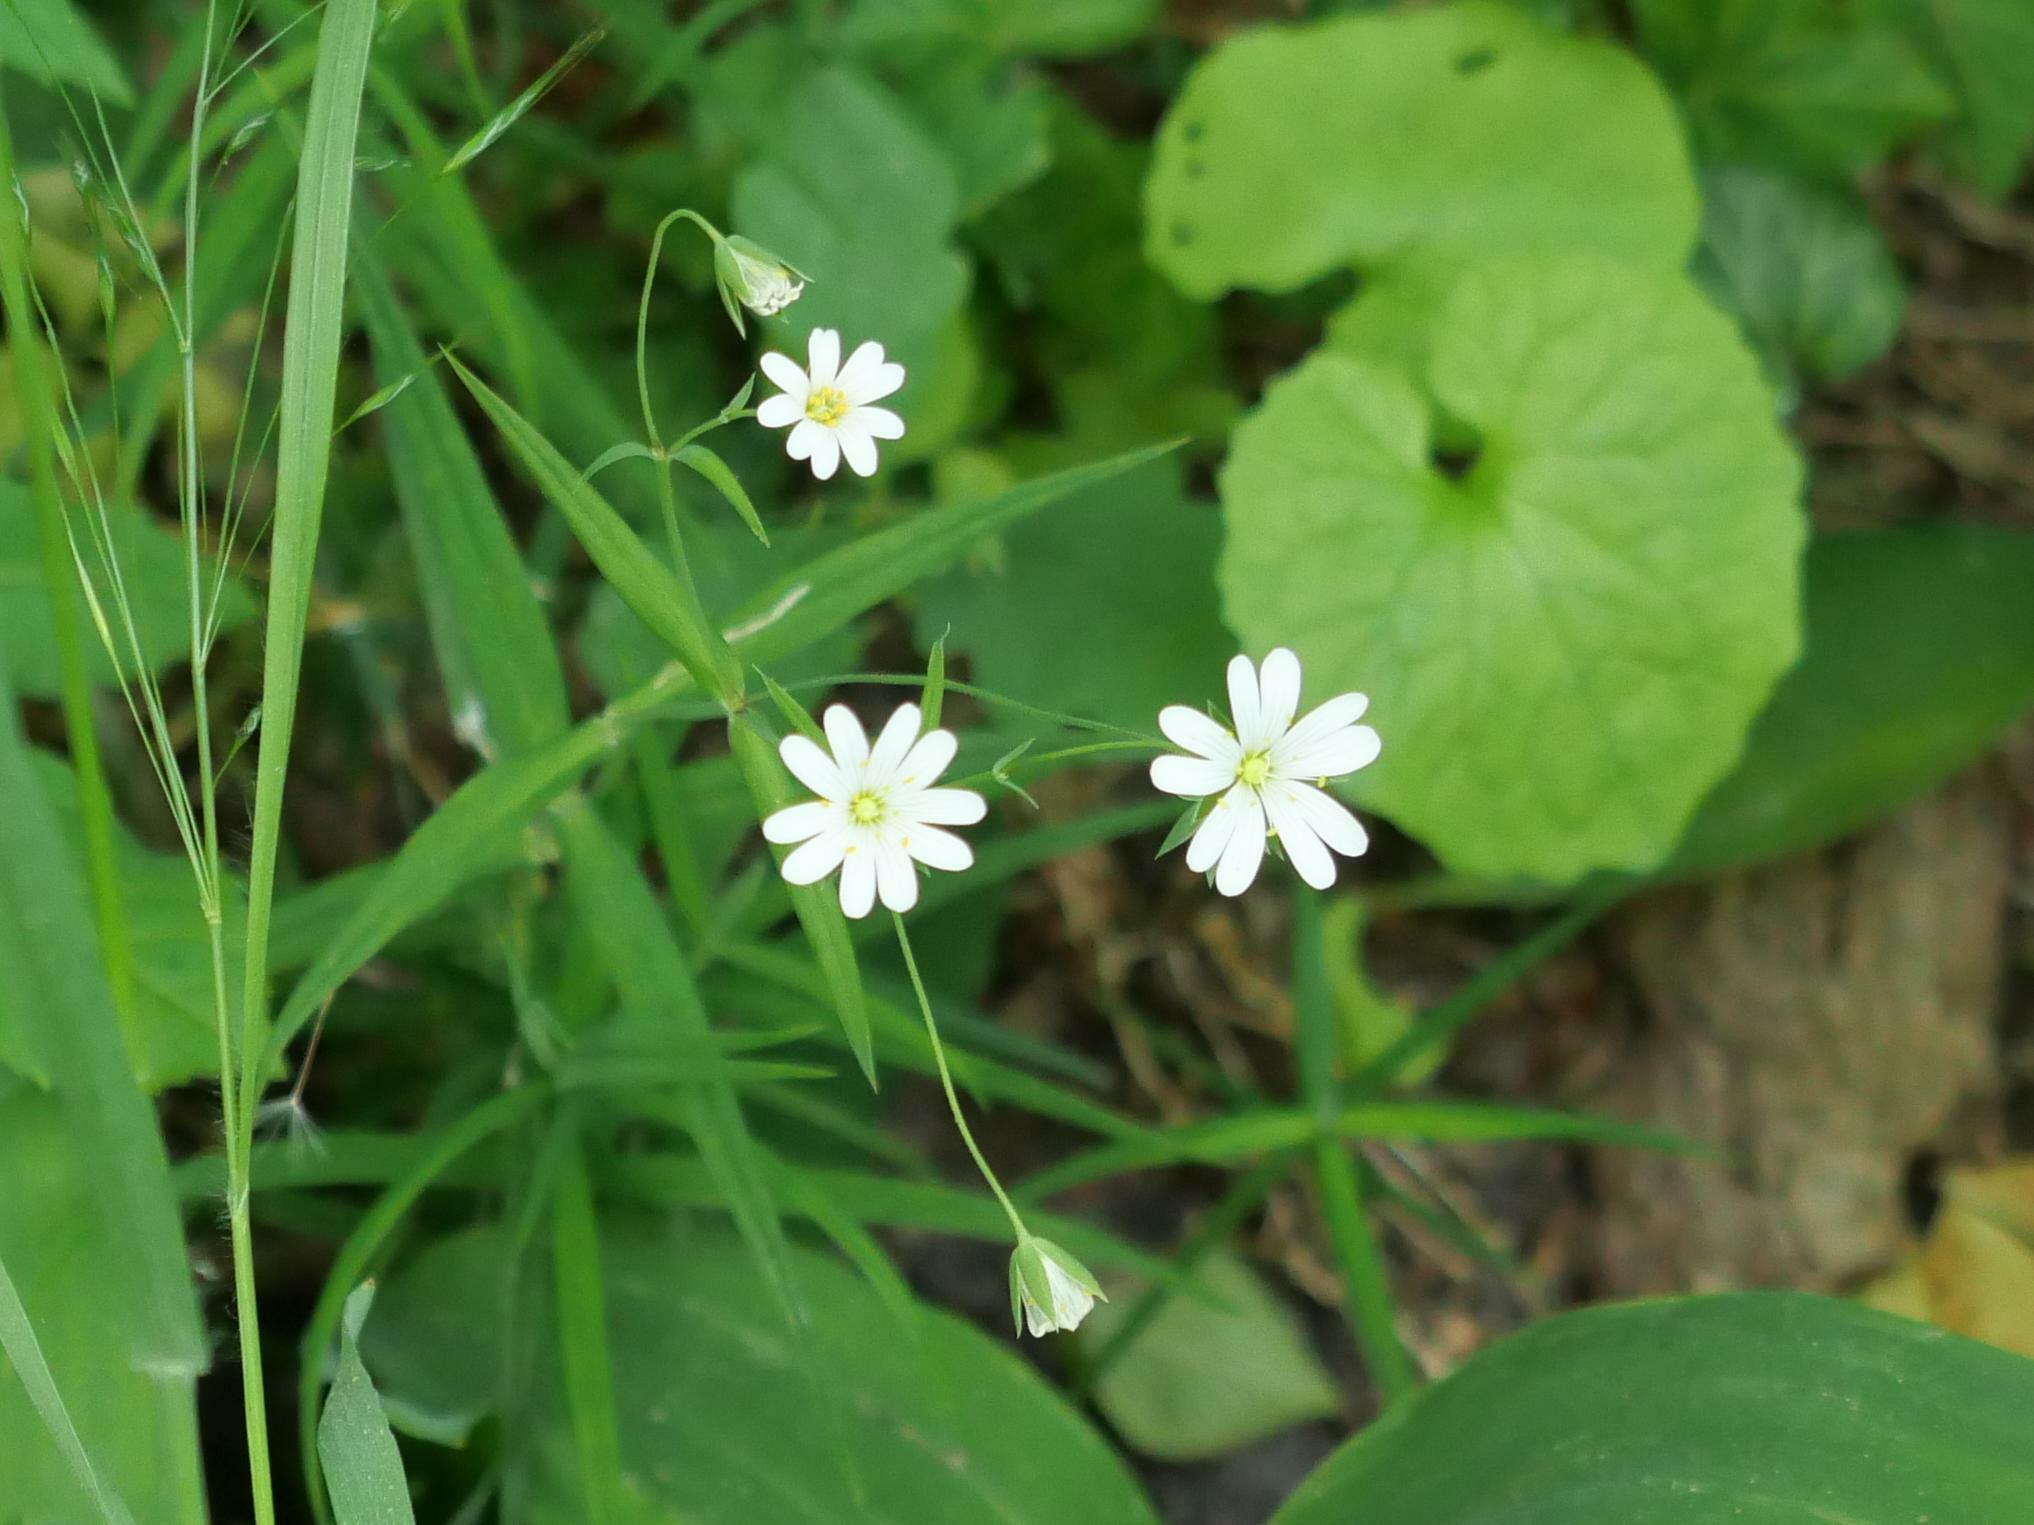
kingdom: Plantae
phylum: Tracheophyta
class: Magnoliopsida
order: Caryophyllales
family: Caryophyllaceae
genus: Rabelera
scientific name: Rabelera holostea
